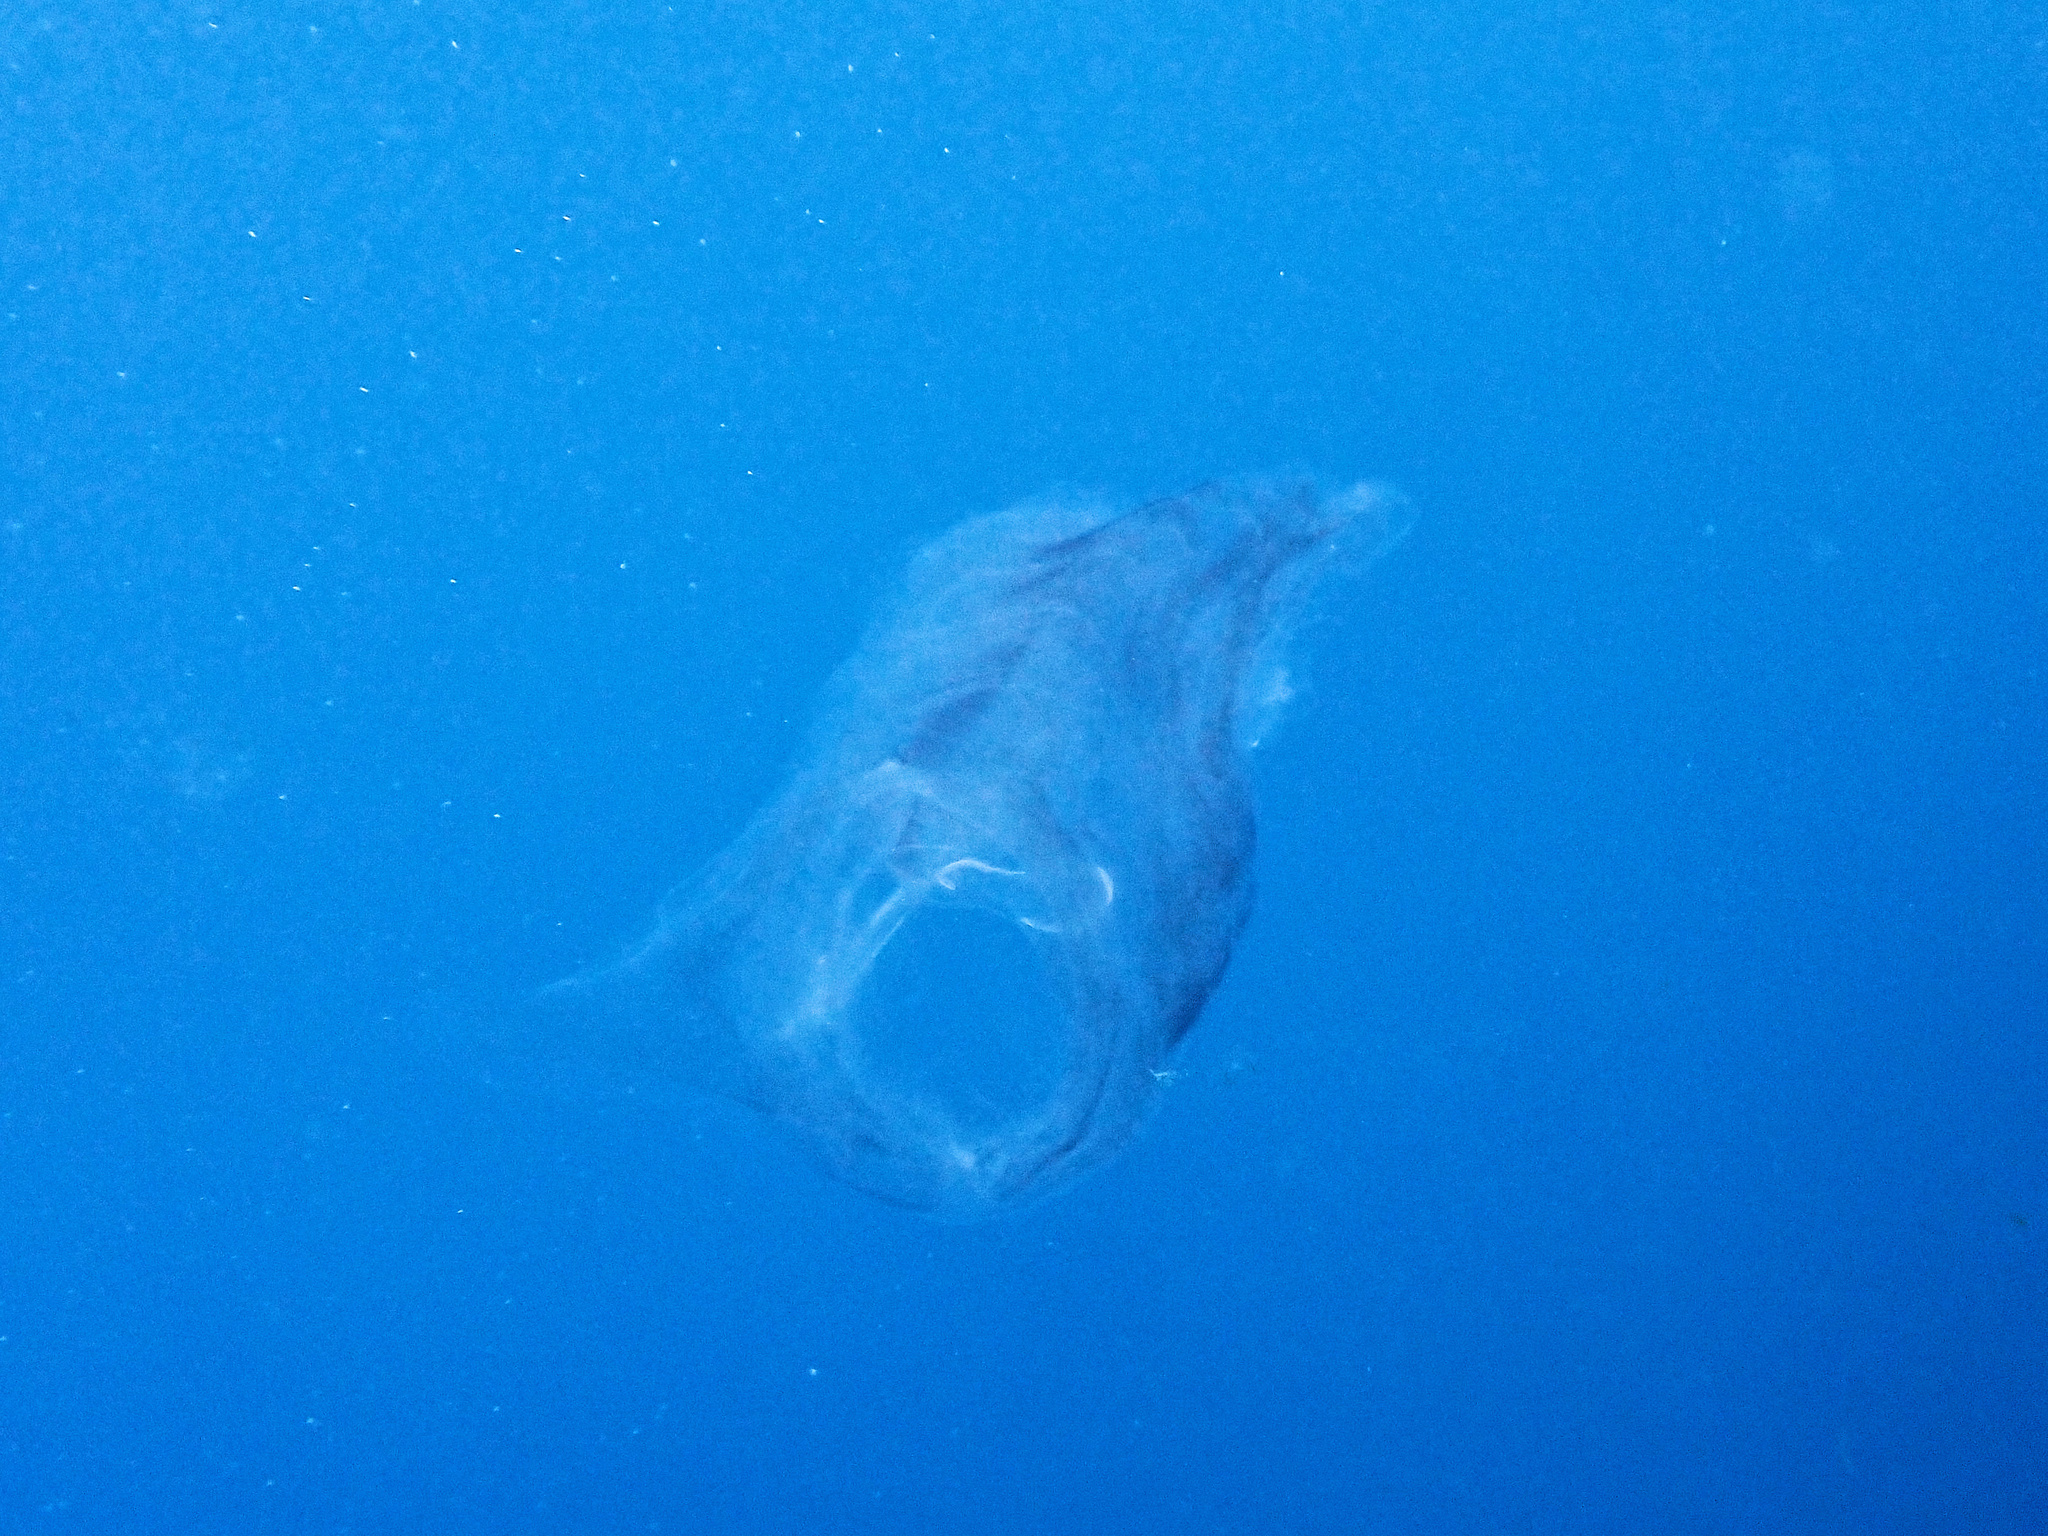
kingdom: Animalia
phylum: Chordata
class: Thaliacea
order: Salpida
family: Salpidae
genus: Salpa
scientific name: Salpa maxima
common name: Giant salp
